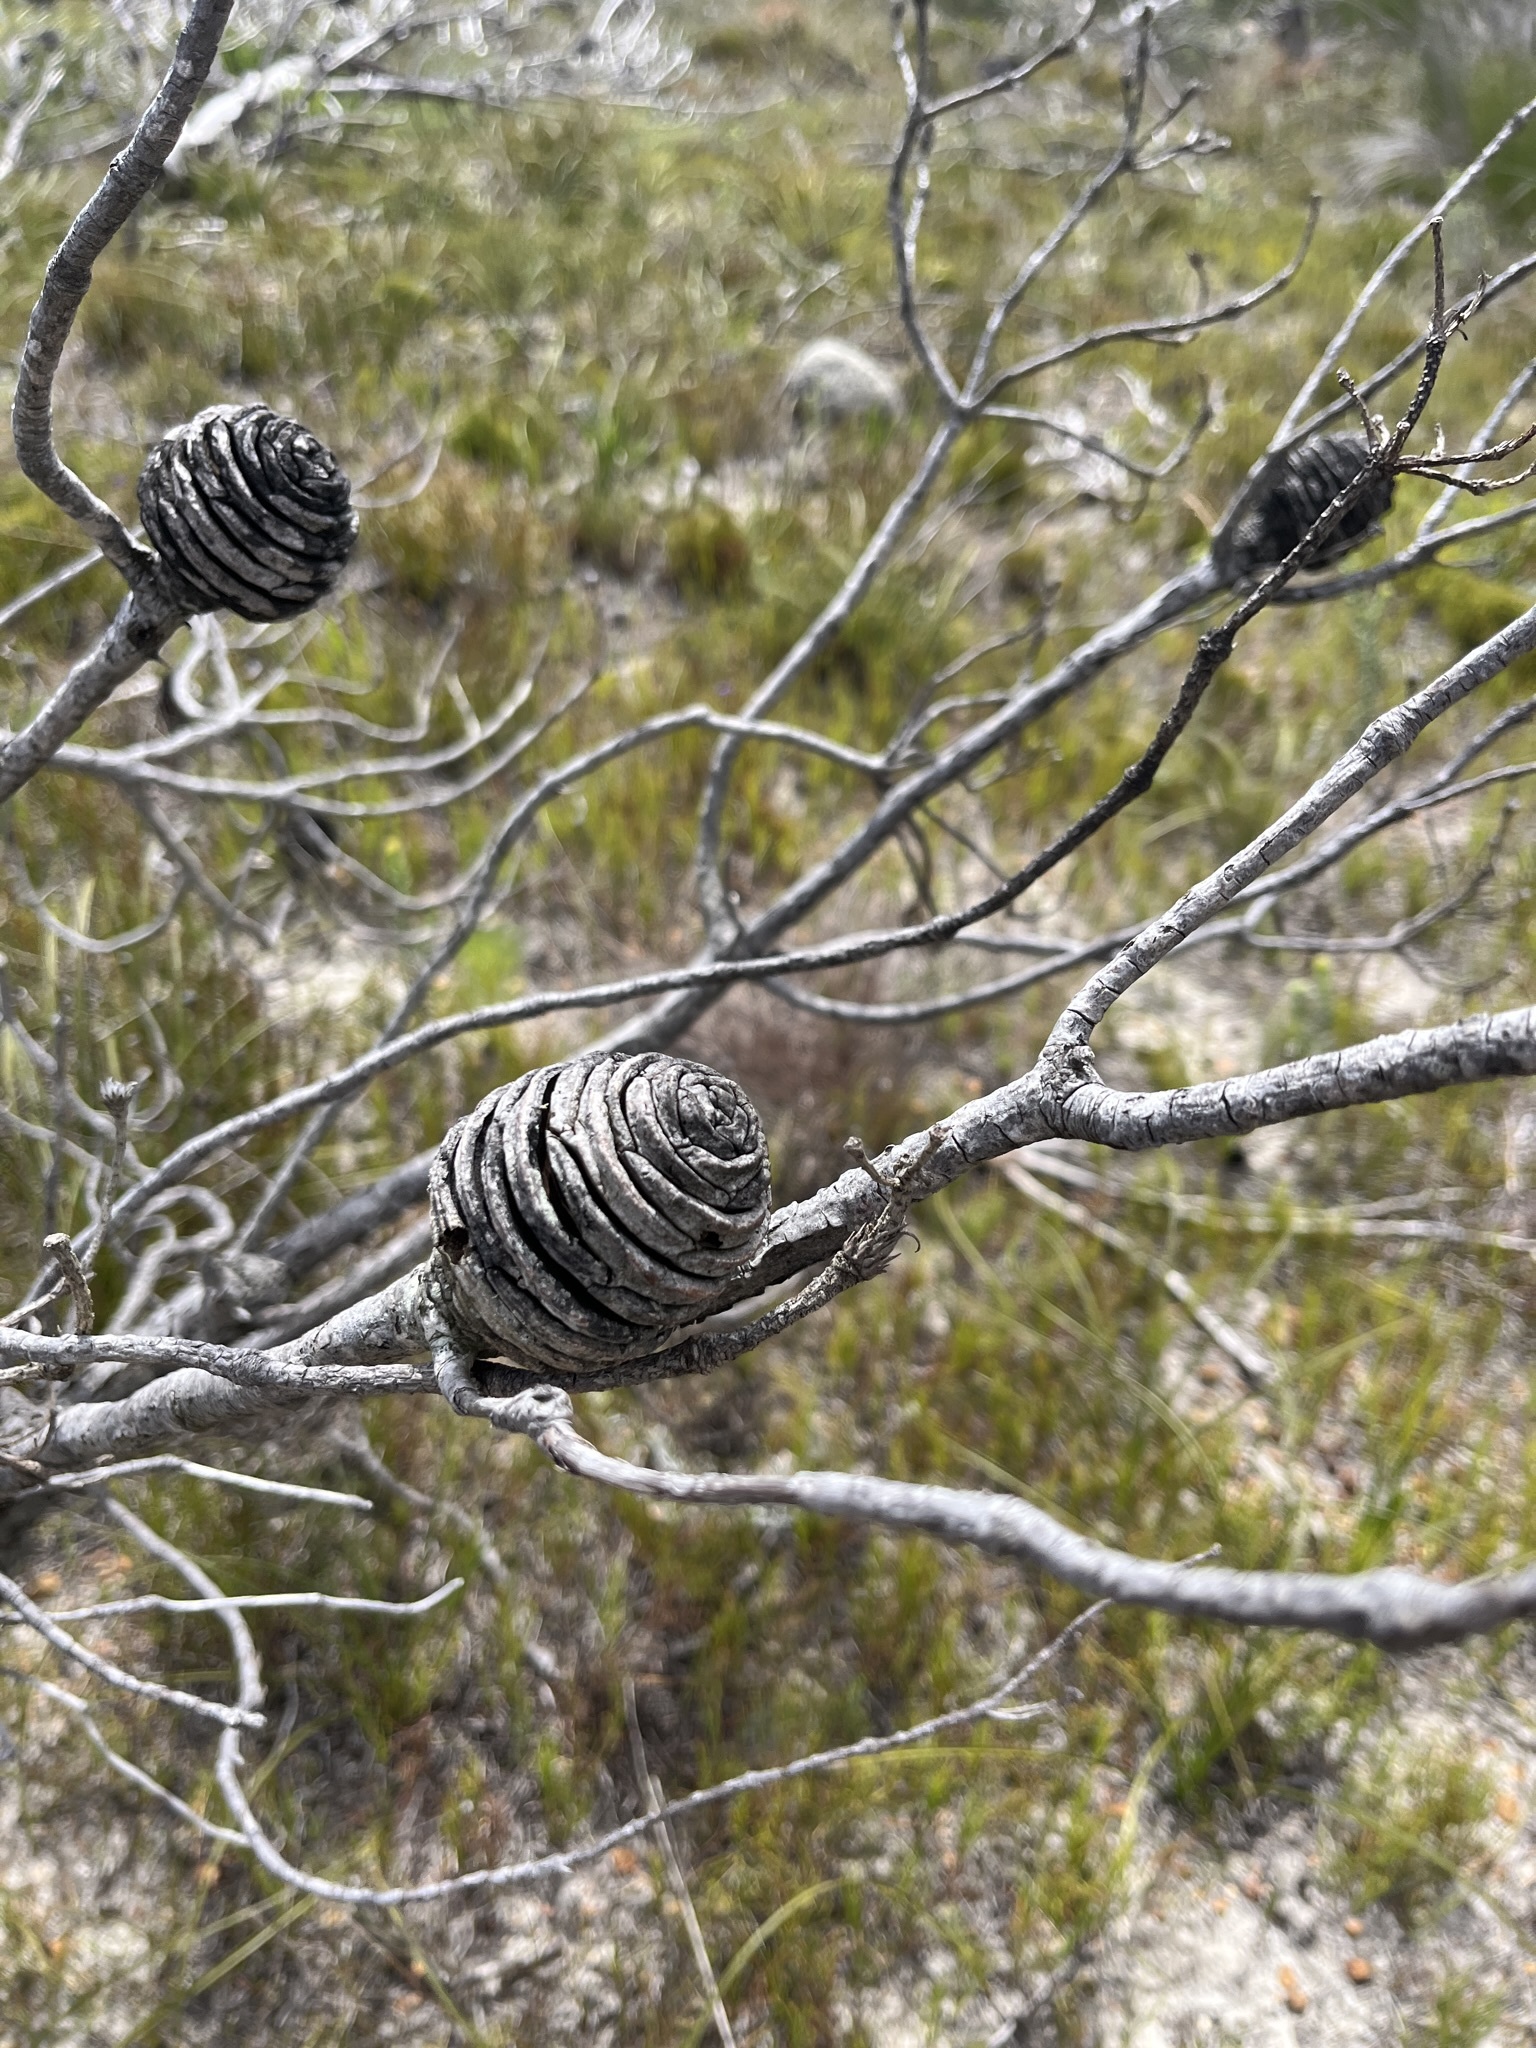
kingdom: Plantae
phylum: Tracheophyta
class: Magnoliopsida
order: Proteales
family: Proteaceae
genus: Leucadendron
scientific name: Leucadendron platyspermum
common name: Plate-seed conebush
